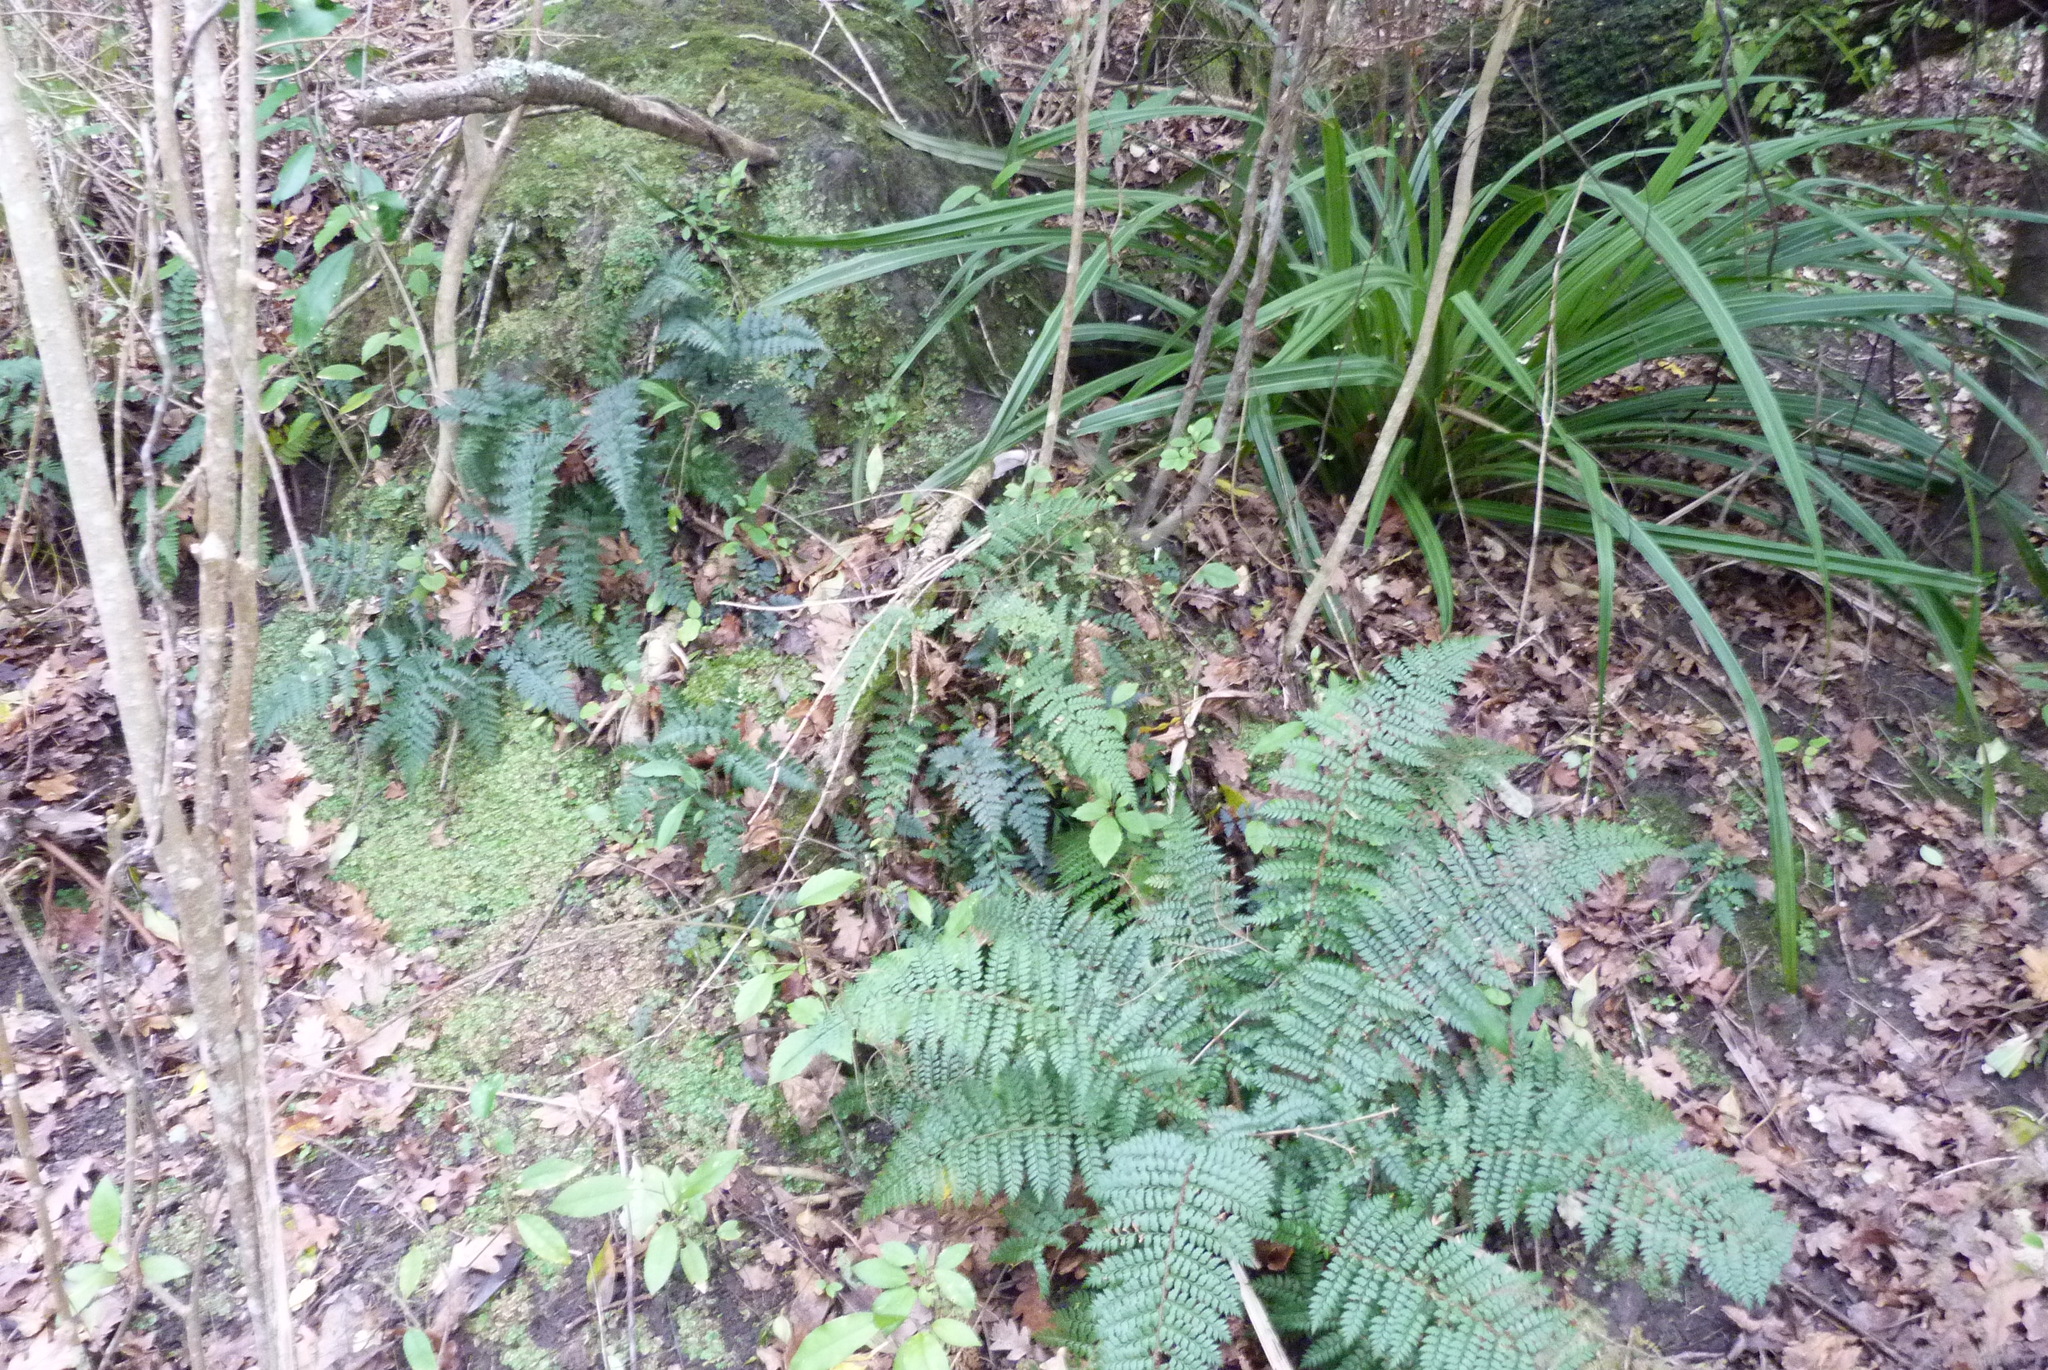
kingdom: Plantae
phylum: Tracheophyta
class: Polypodiopsida
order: Polypodiales
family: Dryopteridaceae
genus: Polystichum
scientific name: Polystichum vestitum
